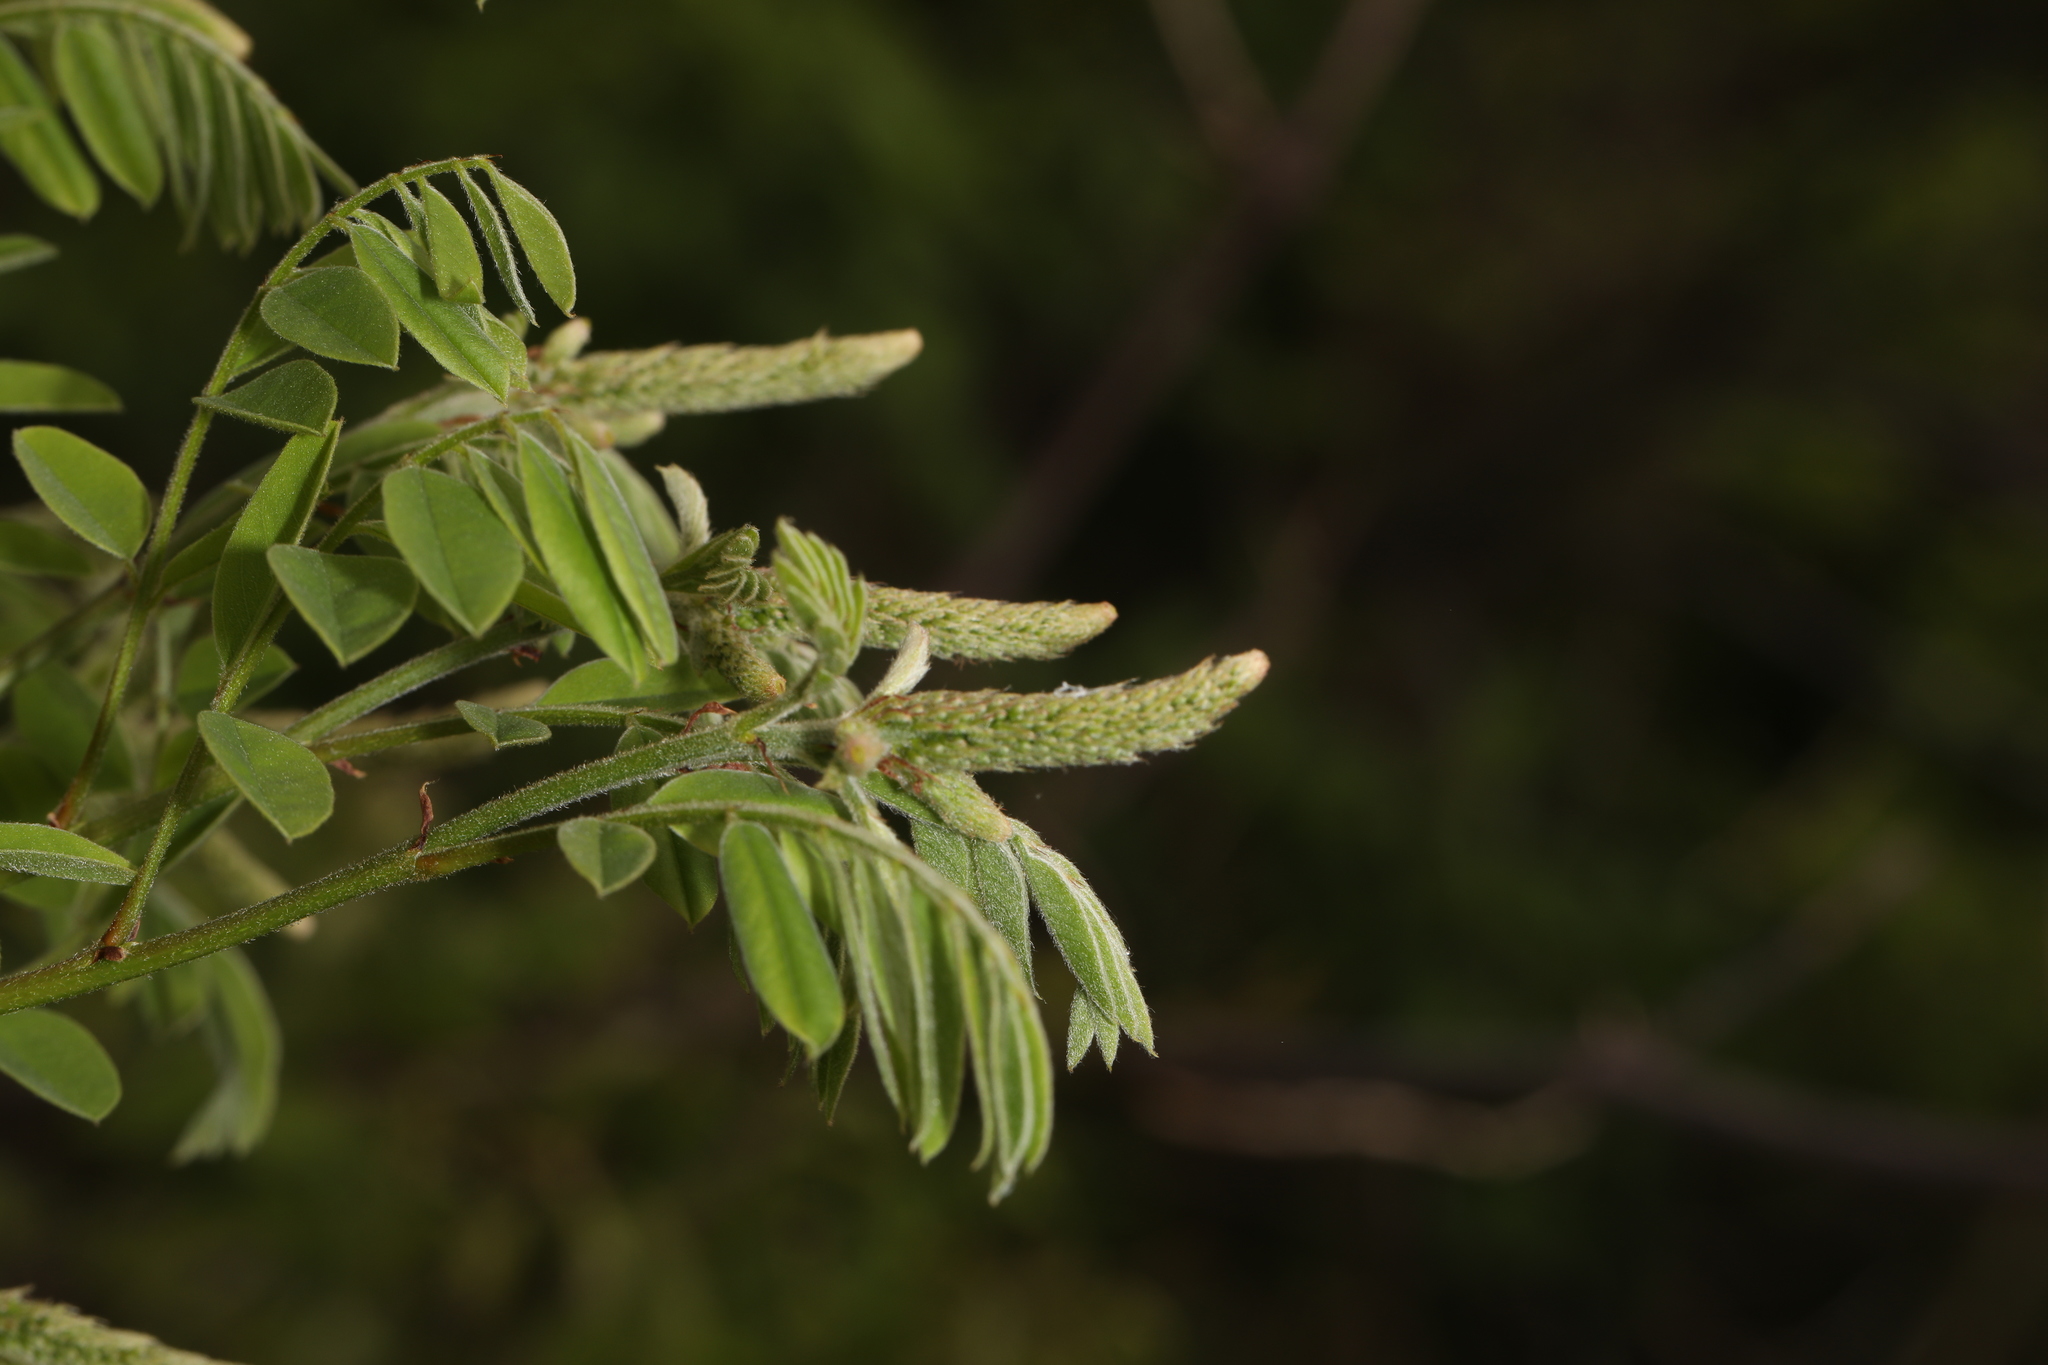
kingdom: Plantae
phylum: Tracheophyta
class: Magnoliopsida
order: Fabales
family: Fabaceae
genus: Amorpha
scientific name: Amorpha fruticosa
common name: False indigo
